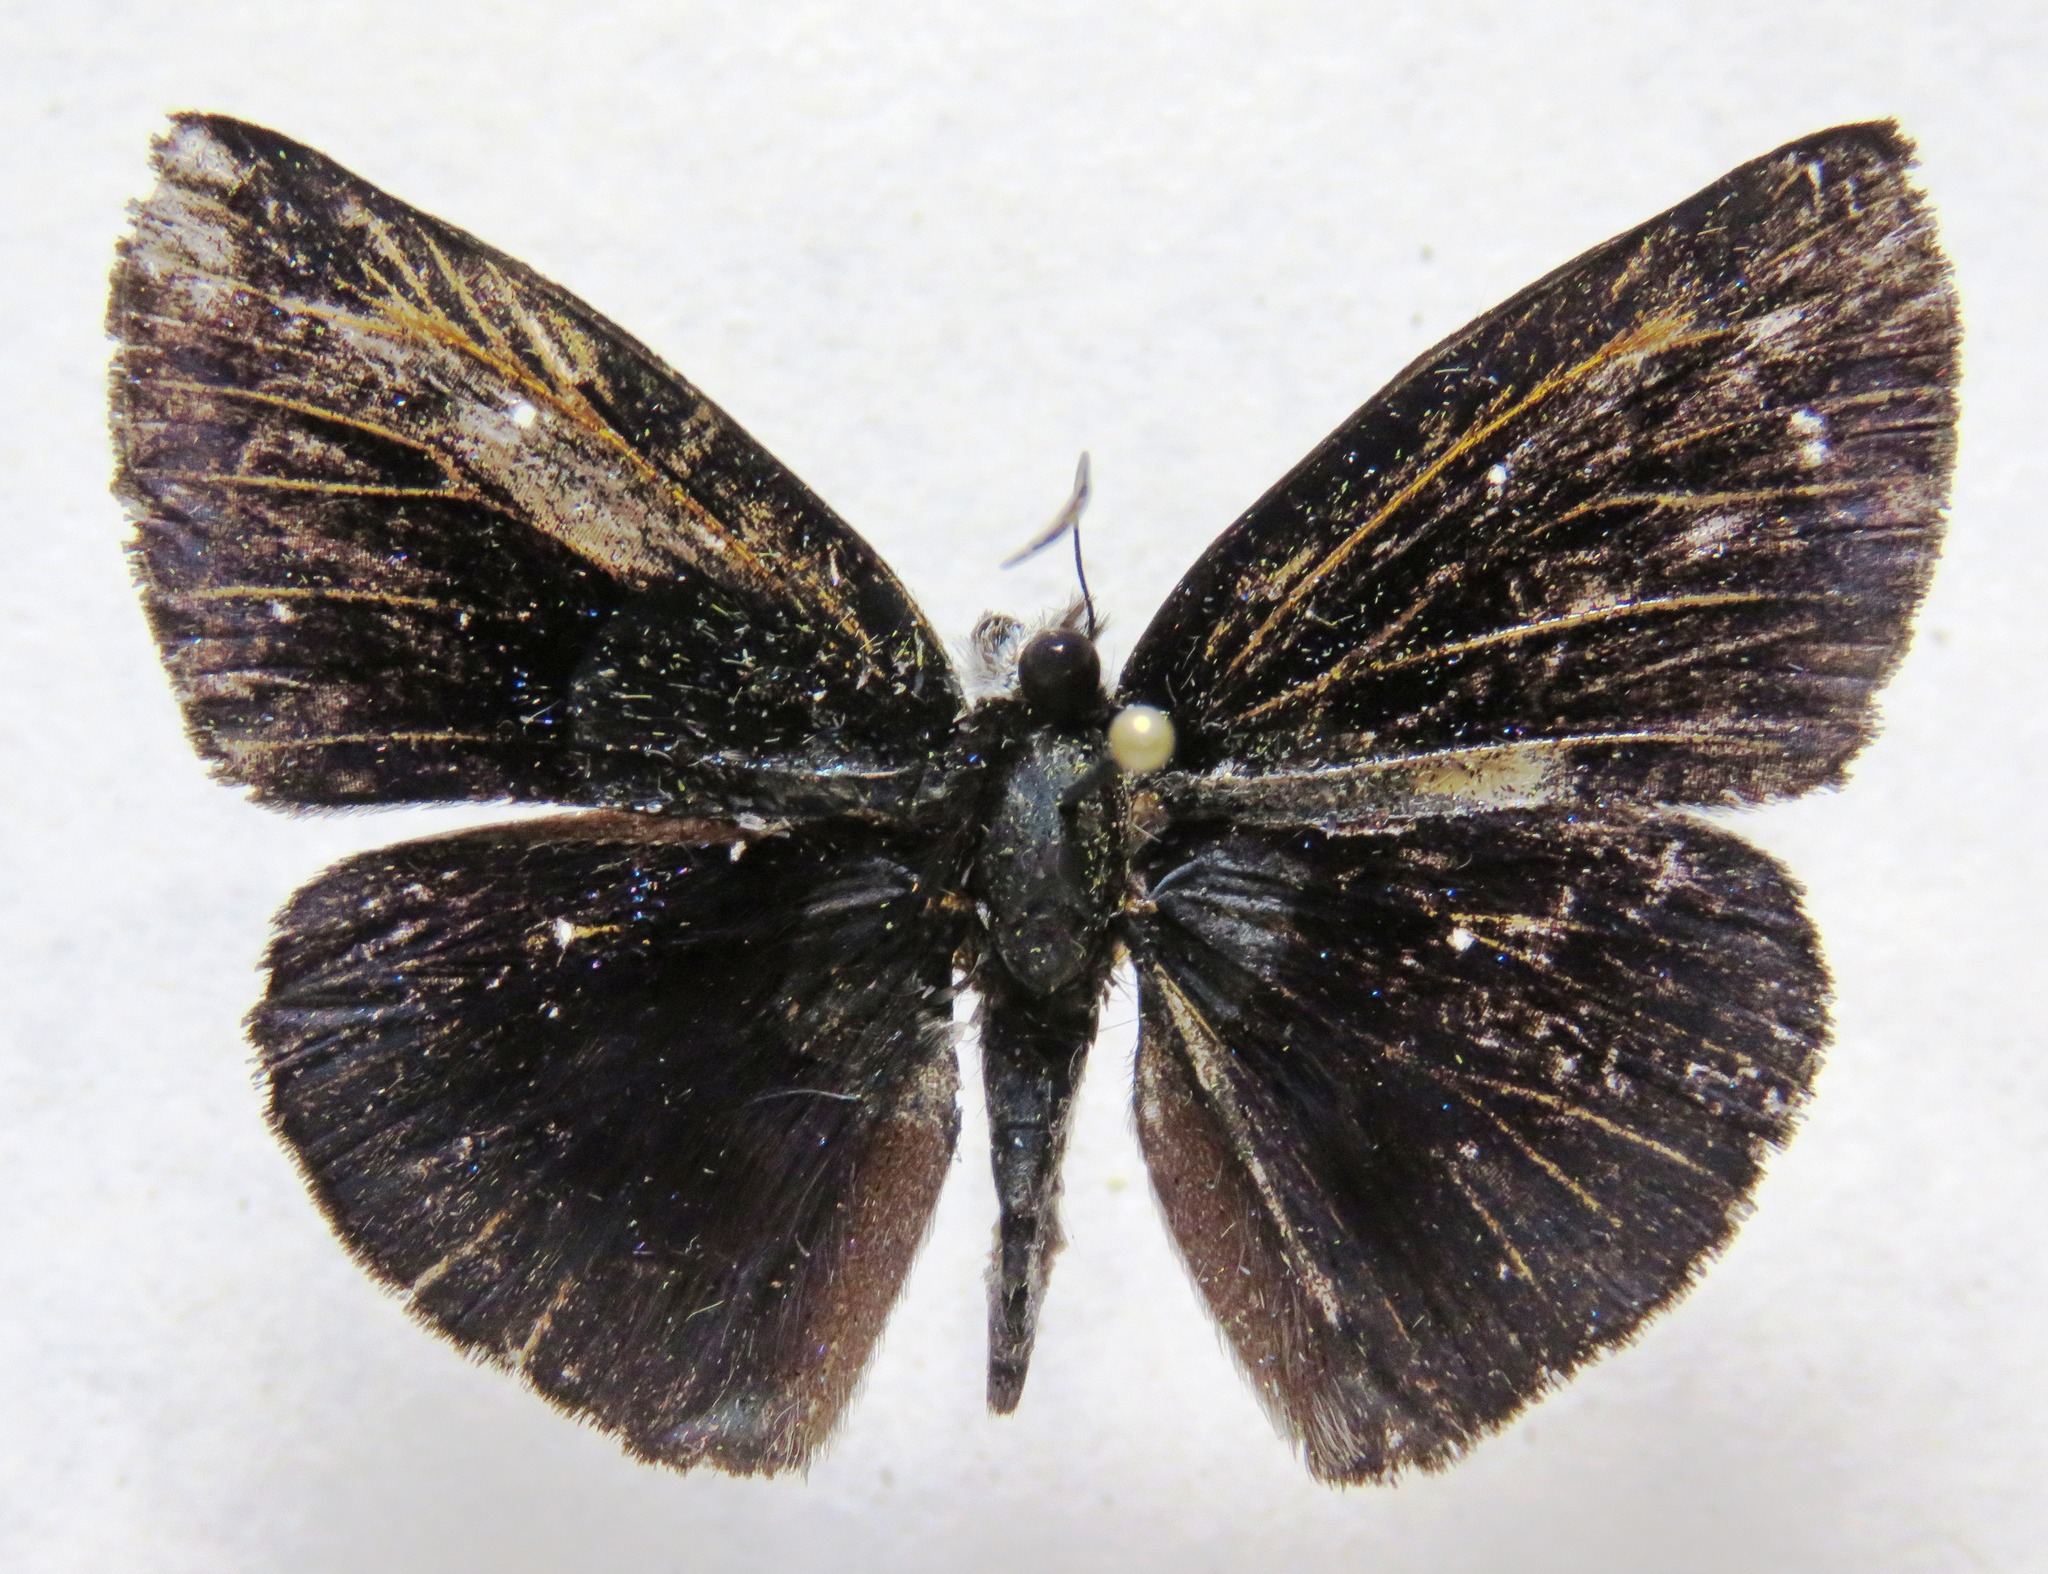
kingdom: Animalia
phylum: Arthropoda
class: Insecta
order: Lepidoptera
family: Hesperiidae
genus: Anastrus
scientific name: Anastrus
